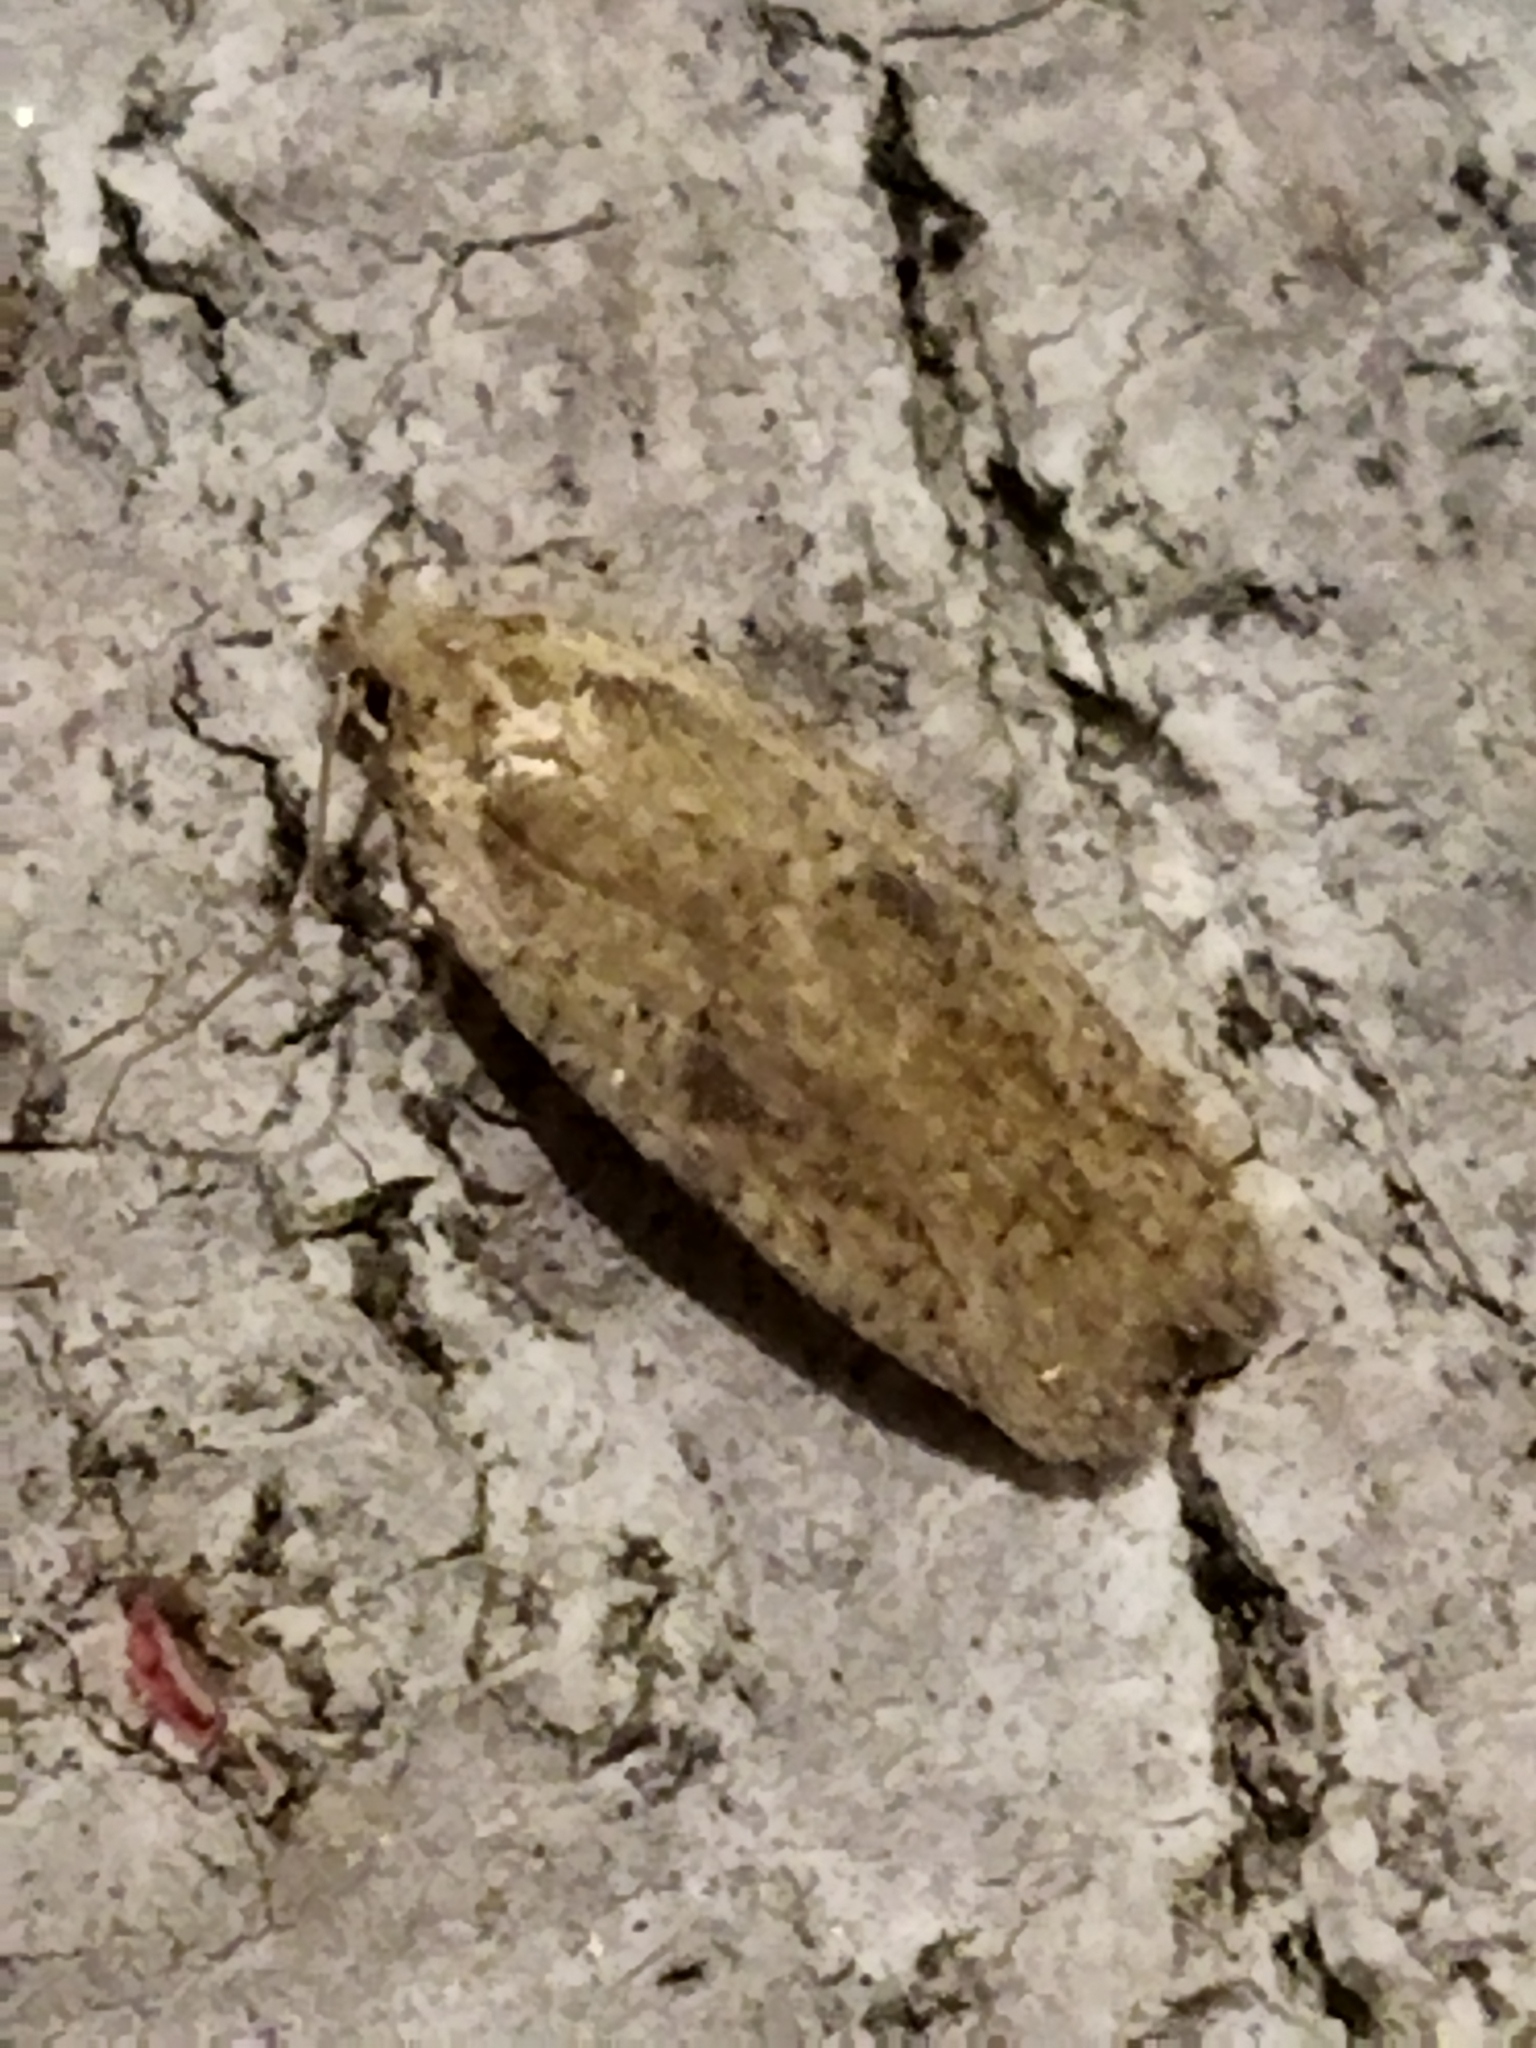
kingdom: Animalia
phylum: Arthropoda
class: Insecta
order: Lepidoptera
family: Depressariidae
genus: Agonopterix
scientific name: Agonopterix arenella
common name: Brindled flat-body
